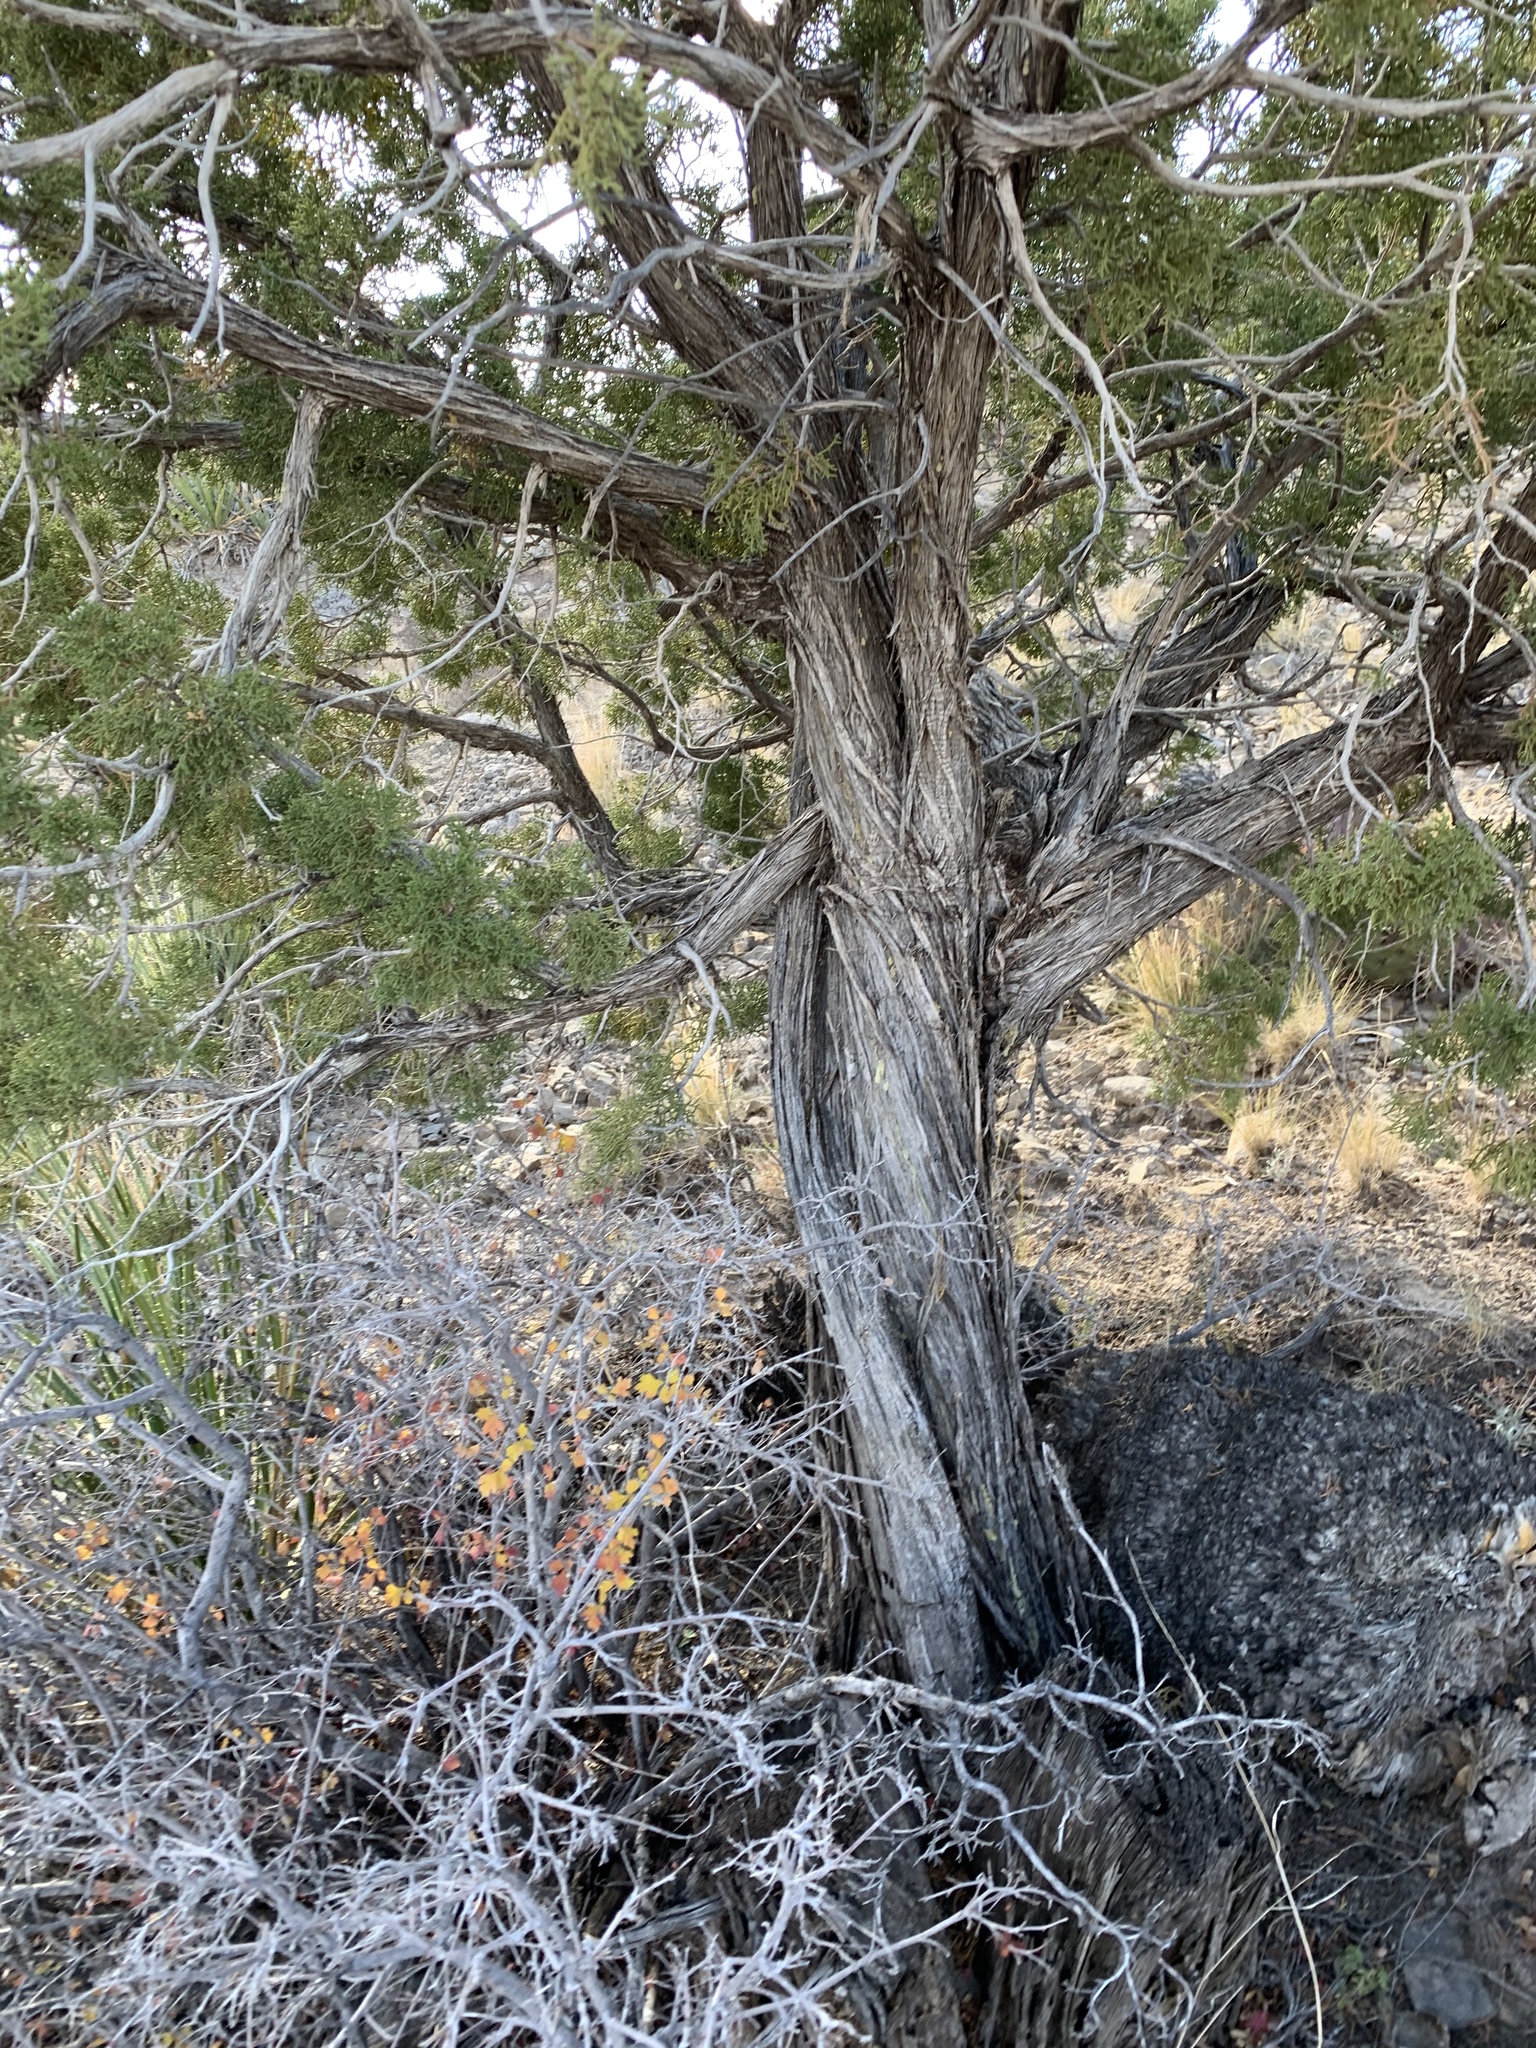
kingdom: Plantae
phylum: Tracheophyta
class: Pinopsida
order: Pinales
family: Cupressaceae
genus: Juniperus
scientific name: Juniperus monosperma
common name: One-seed juniper
